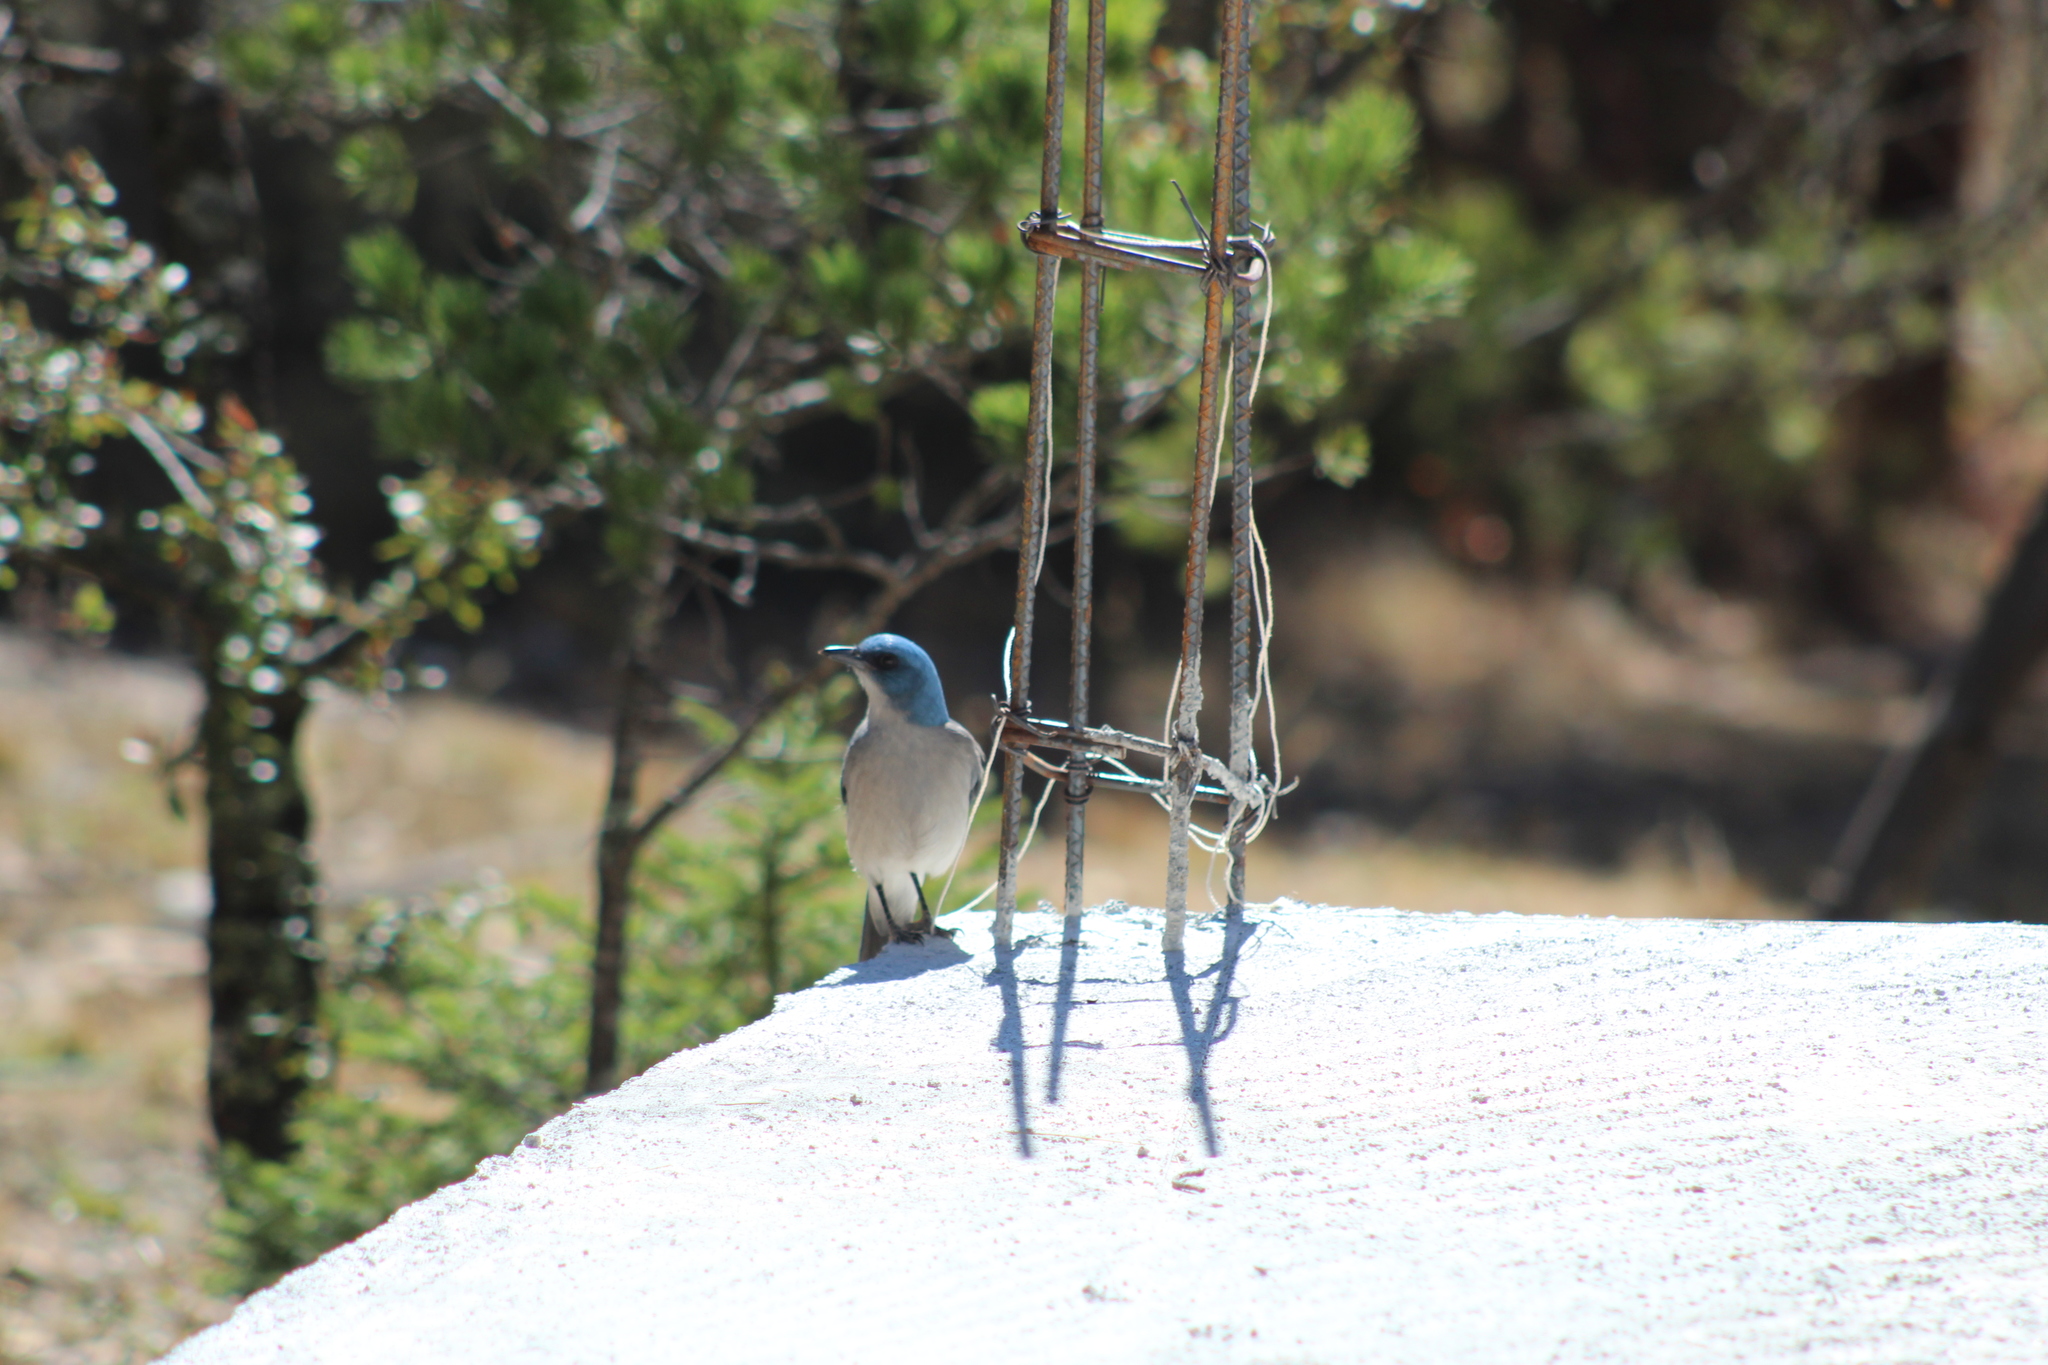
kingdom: Animalia
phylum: Chordata
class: Aves
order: Passeriformes
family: Corvidae
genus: Aphelocoma
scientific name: Aphelocoma wollweberi
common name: Mexican jay
